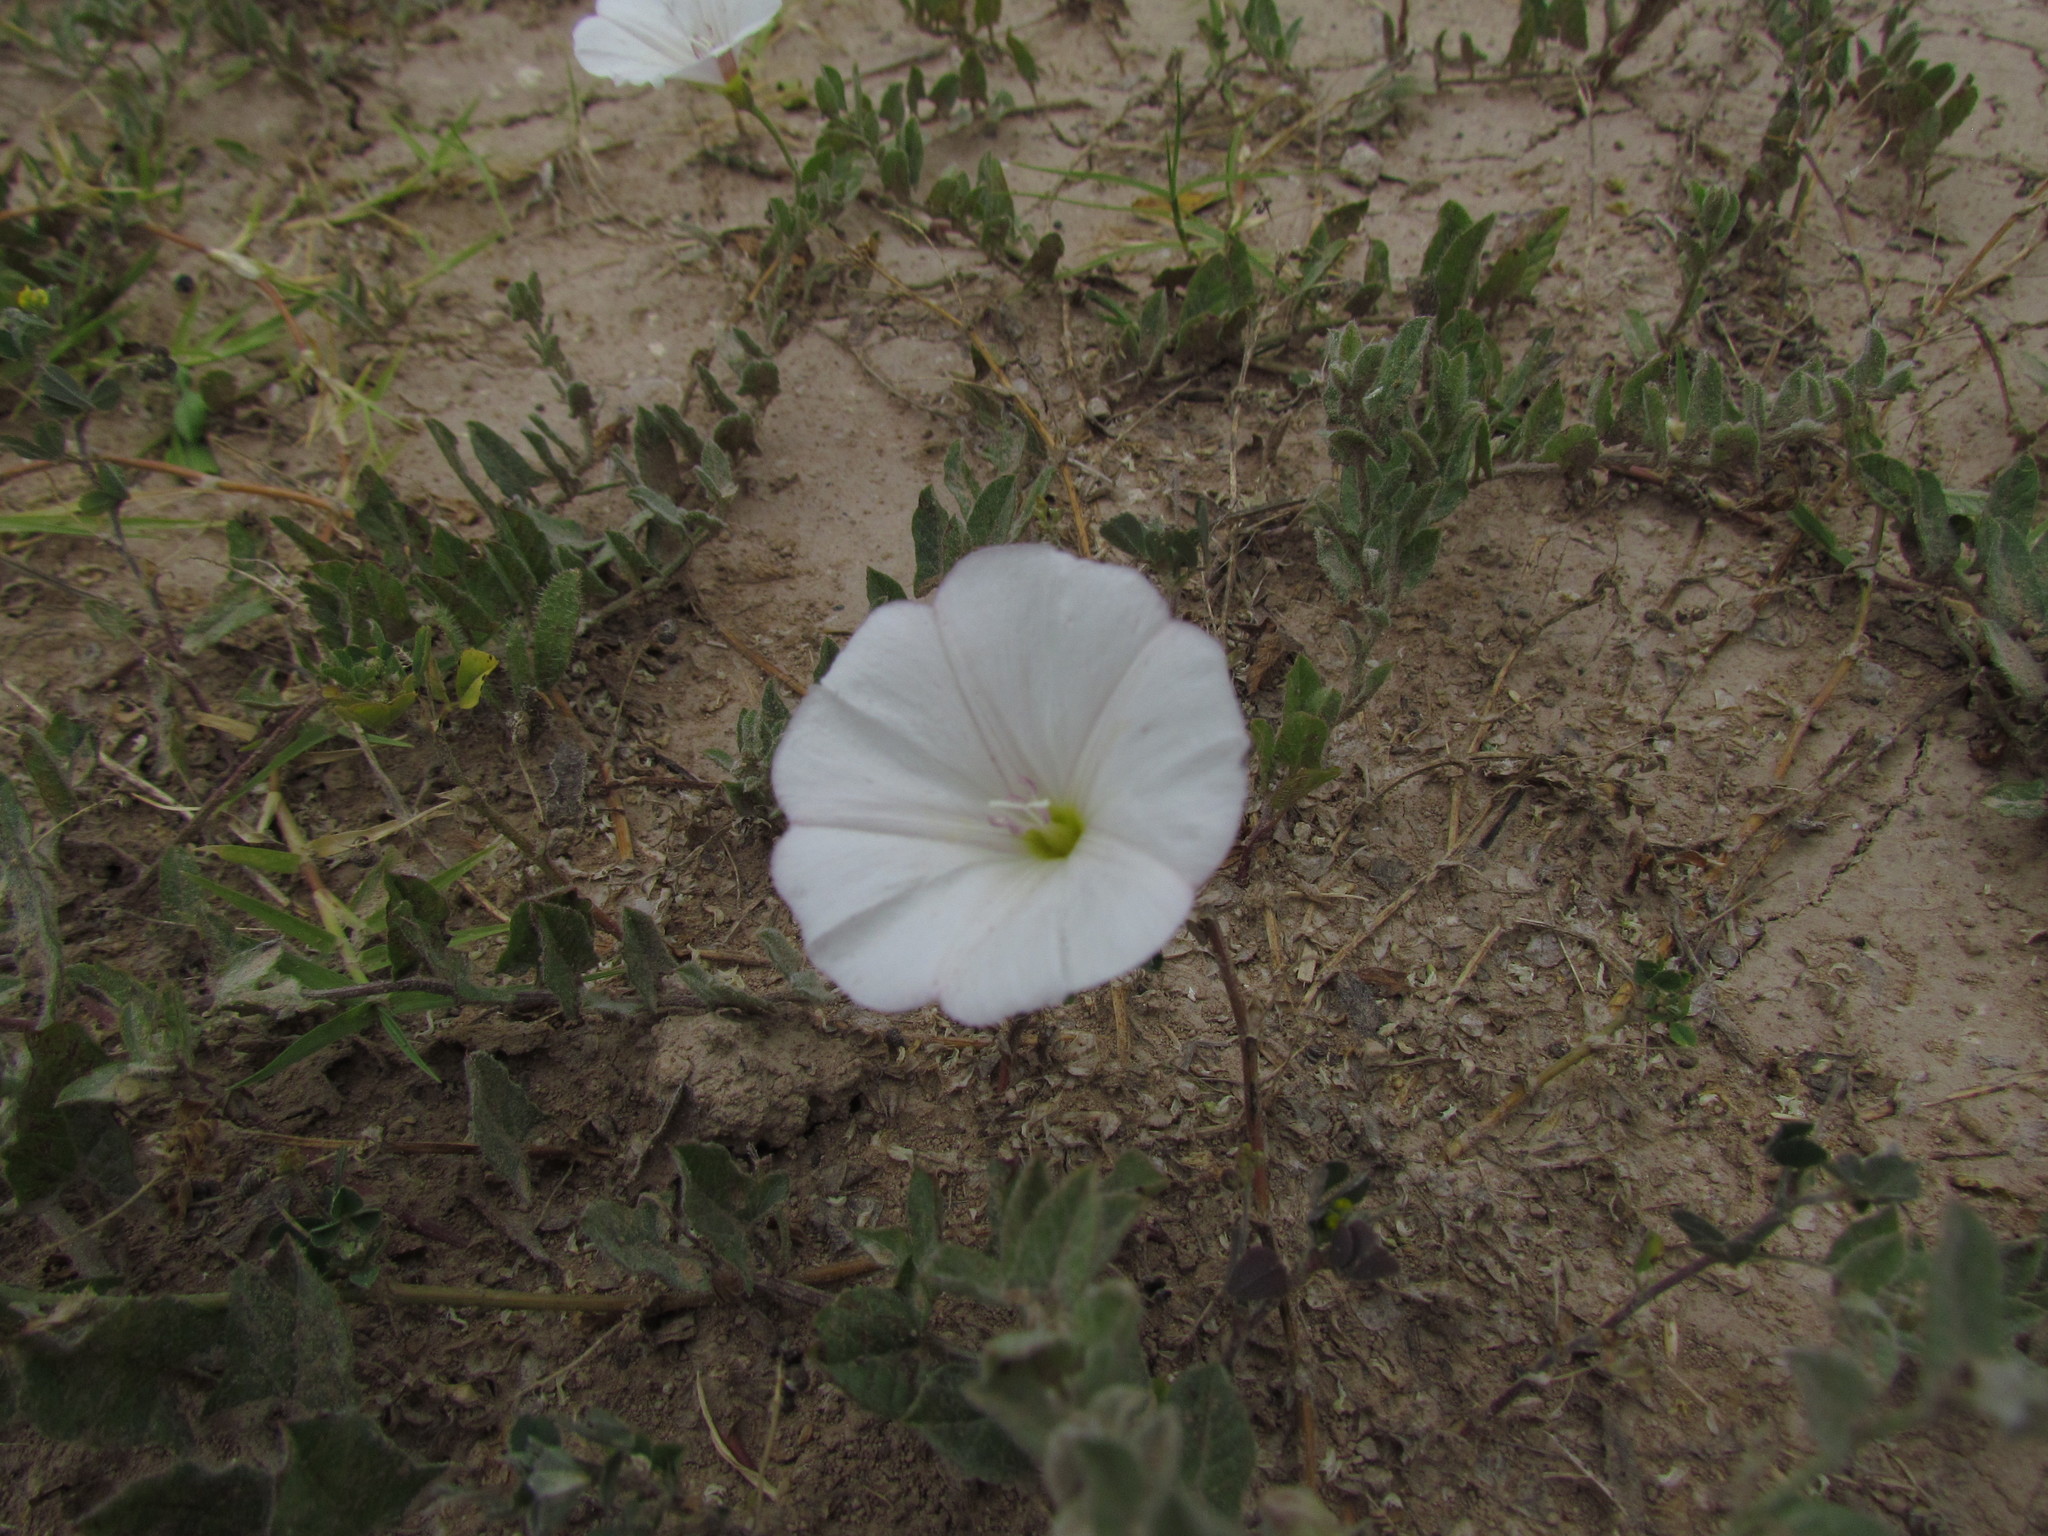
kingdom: Plantae
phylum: Tracheophyta
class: Magnoliopsida
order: Solanales
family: Convolvulaceae
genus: Convolvulus
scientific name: Convolvulus arvensis
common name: Field bindweed
